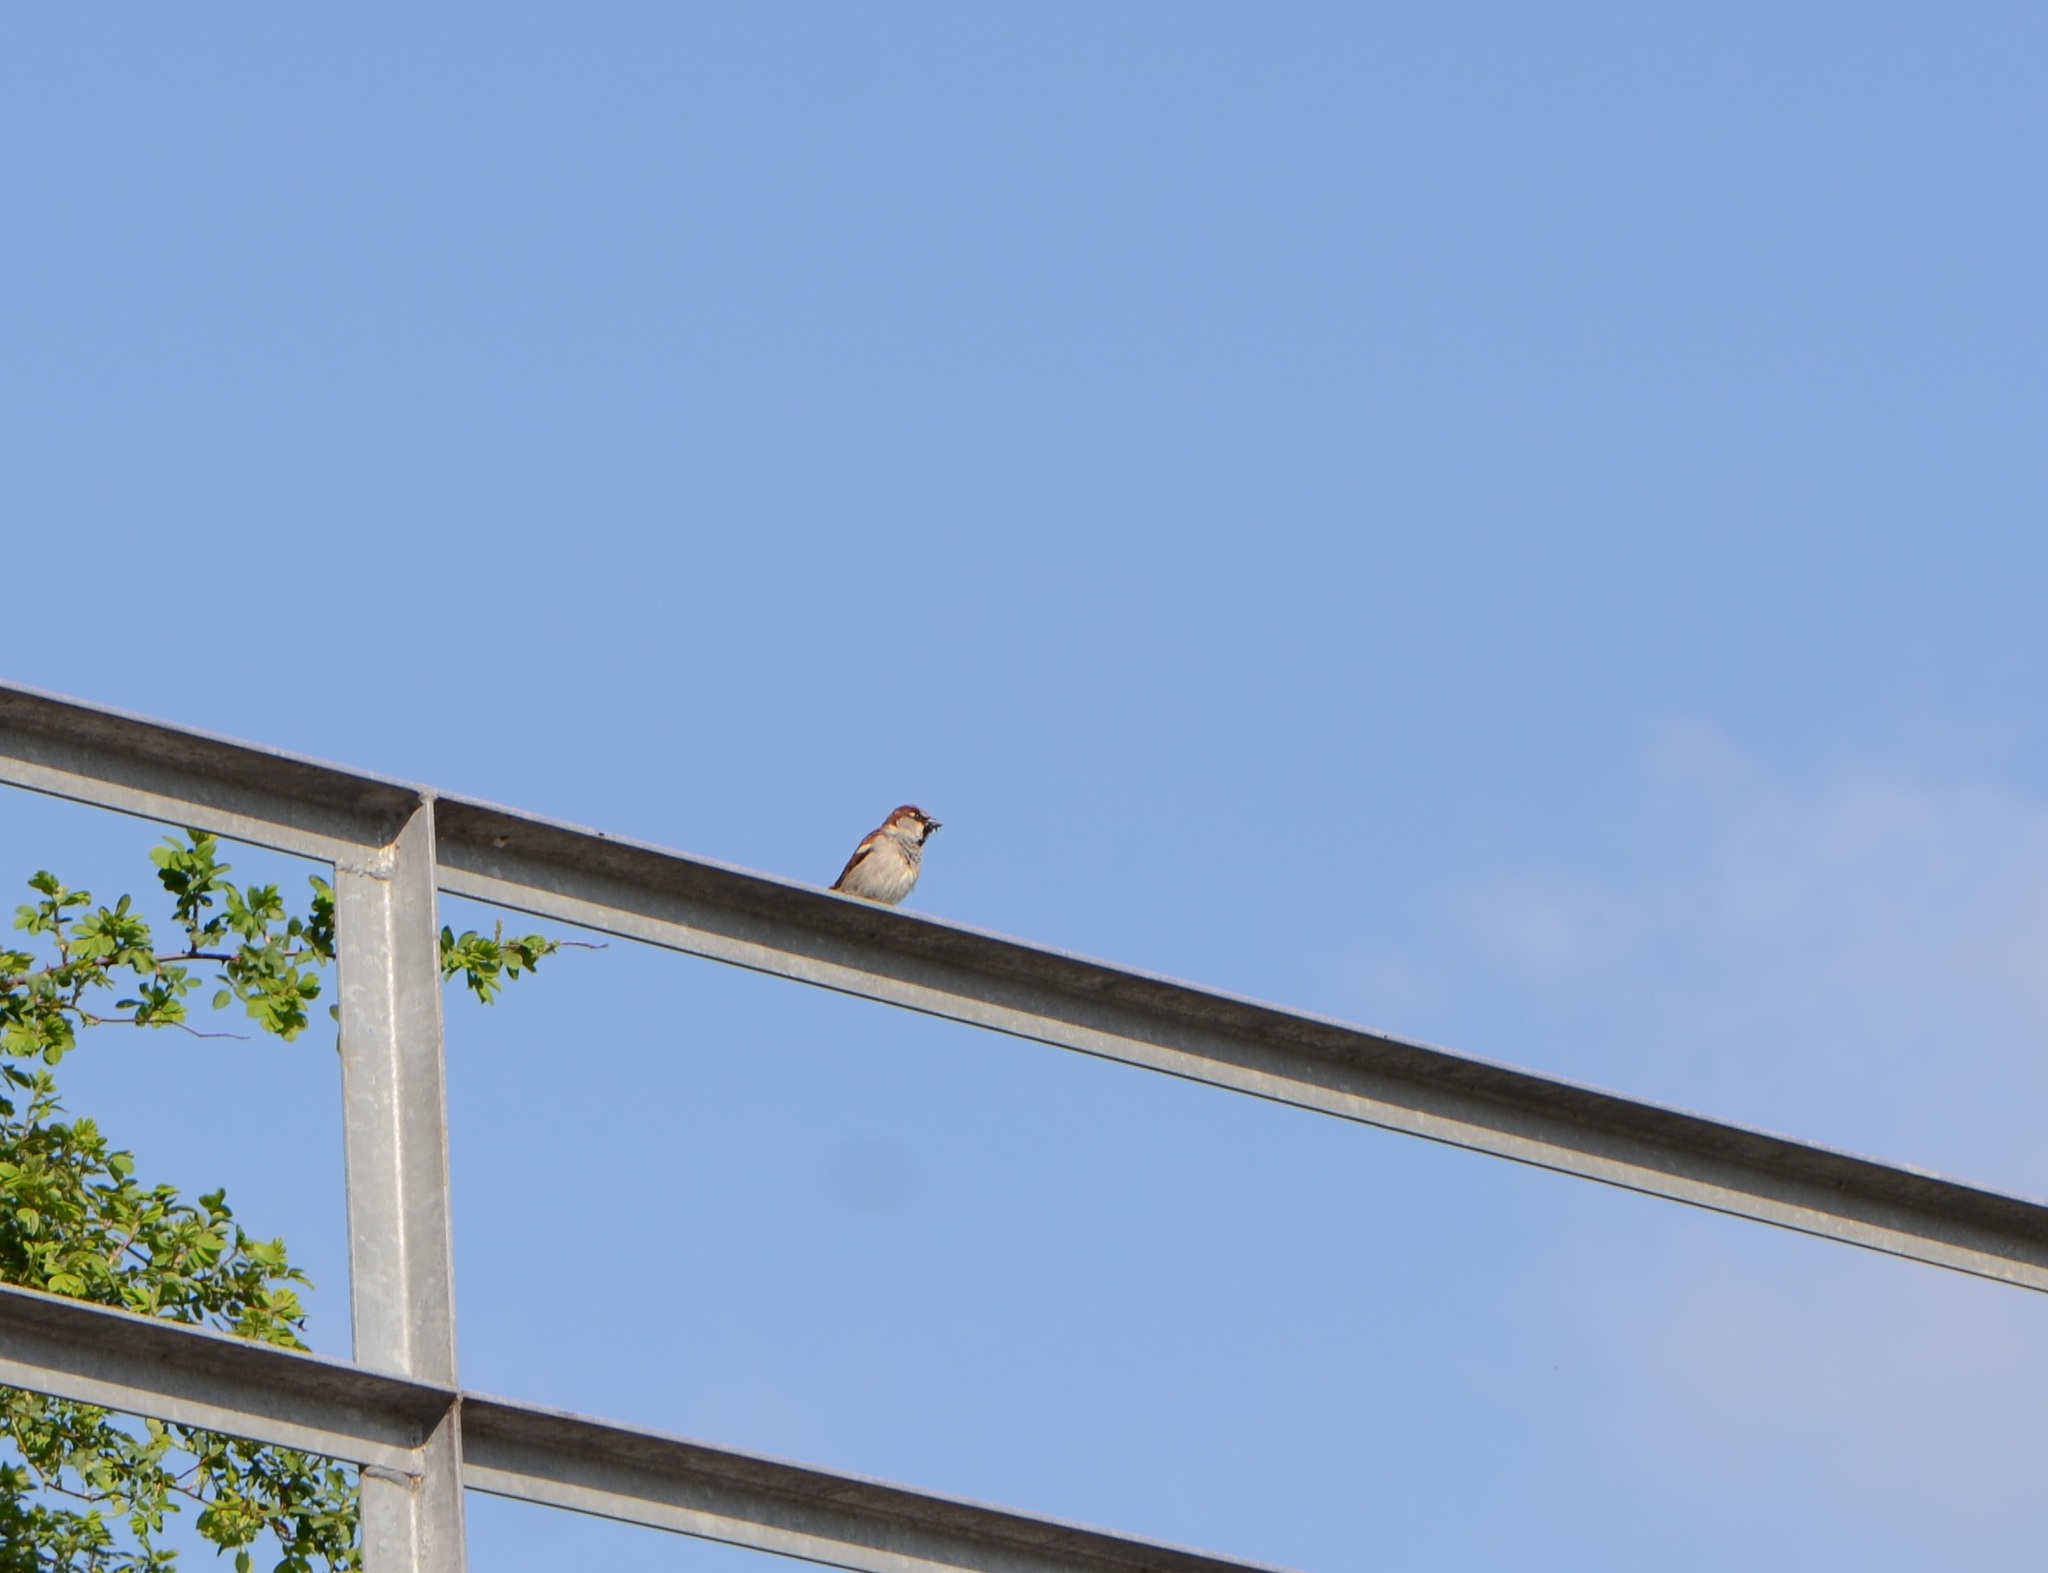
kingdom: Animalia
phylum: Chordata
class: Aves
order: Passeriformes
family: Passeridae
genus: Passer
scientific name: Passer domesticus
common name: House sparrow
